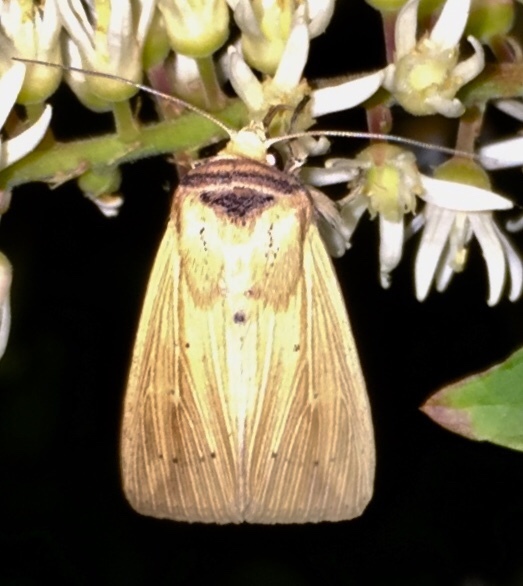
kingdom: Animalia
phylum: Arthropoda
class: Insecta
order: Lepidoptera
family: Noctuidae
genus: Leucania
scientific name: Leucania adjuta
